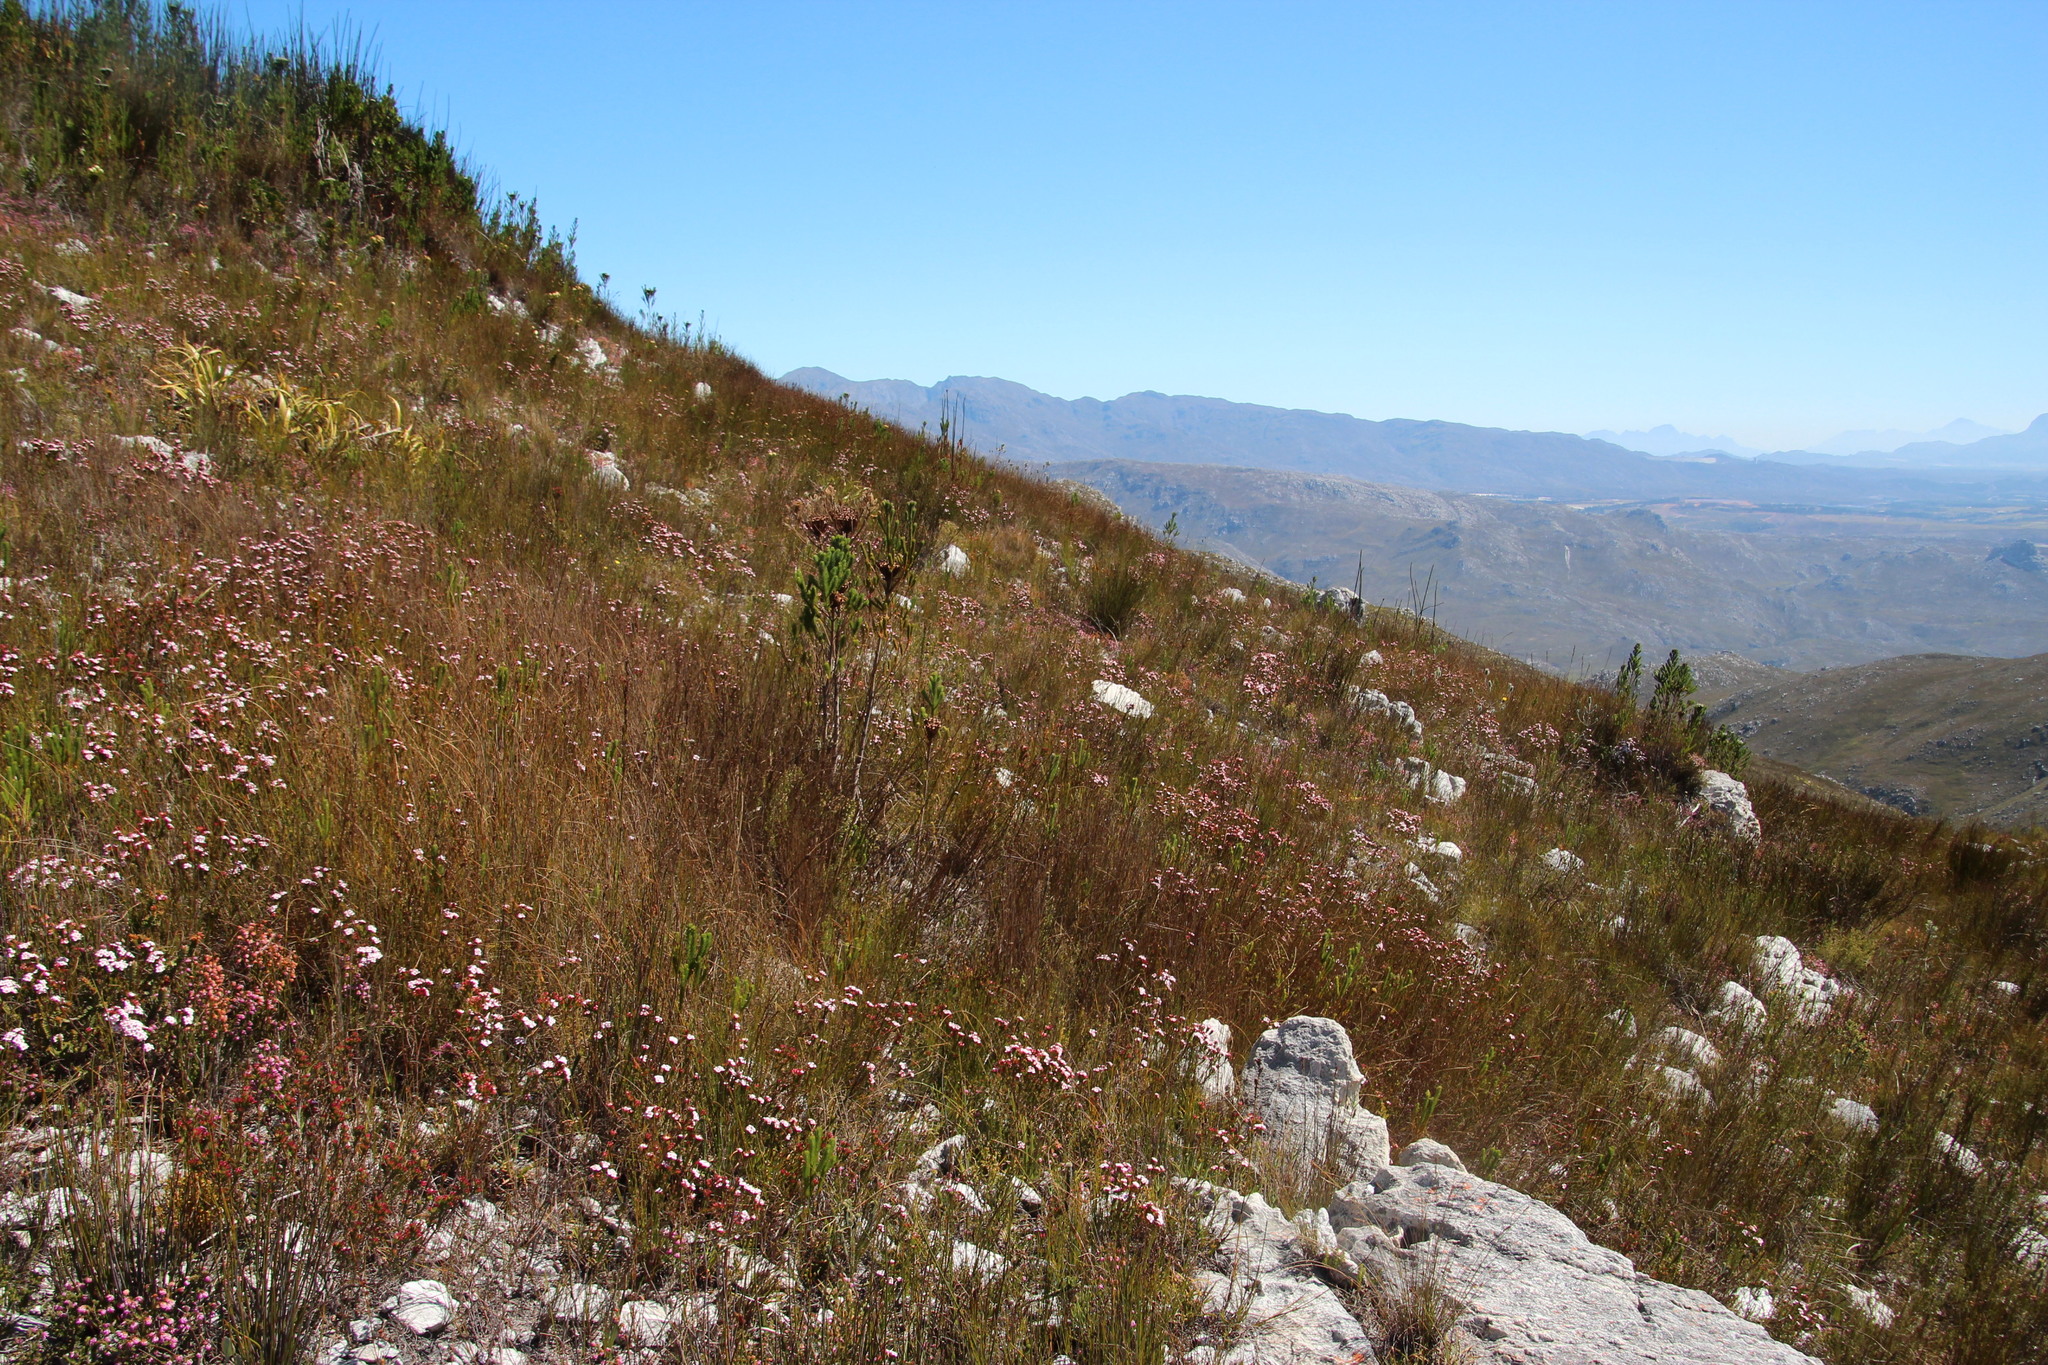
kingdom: Plantae
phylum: Tracheophyta
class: Magnoliopsida
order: Ericales
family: Ericaceae
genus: Erica
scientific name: Erica fastigiata
